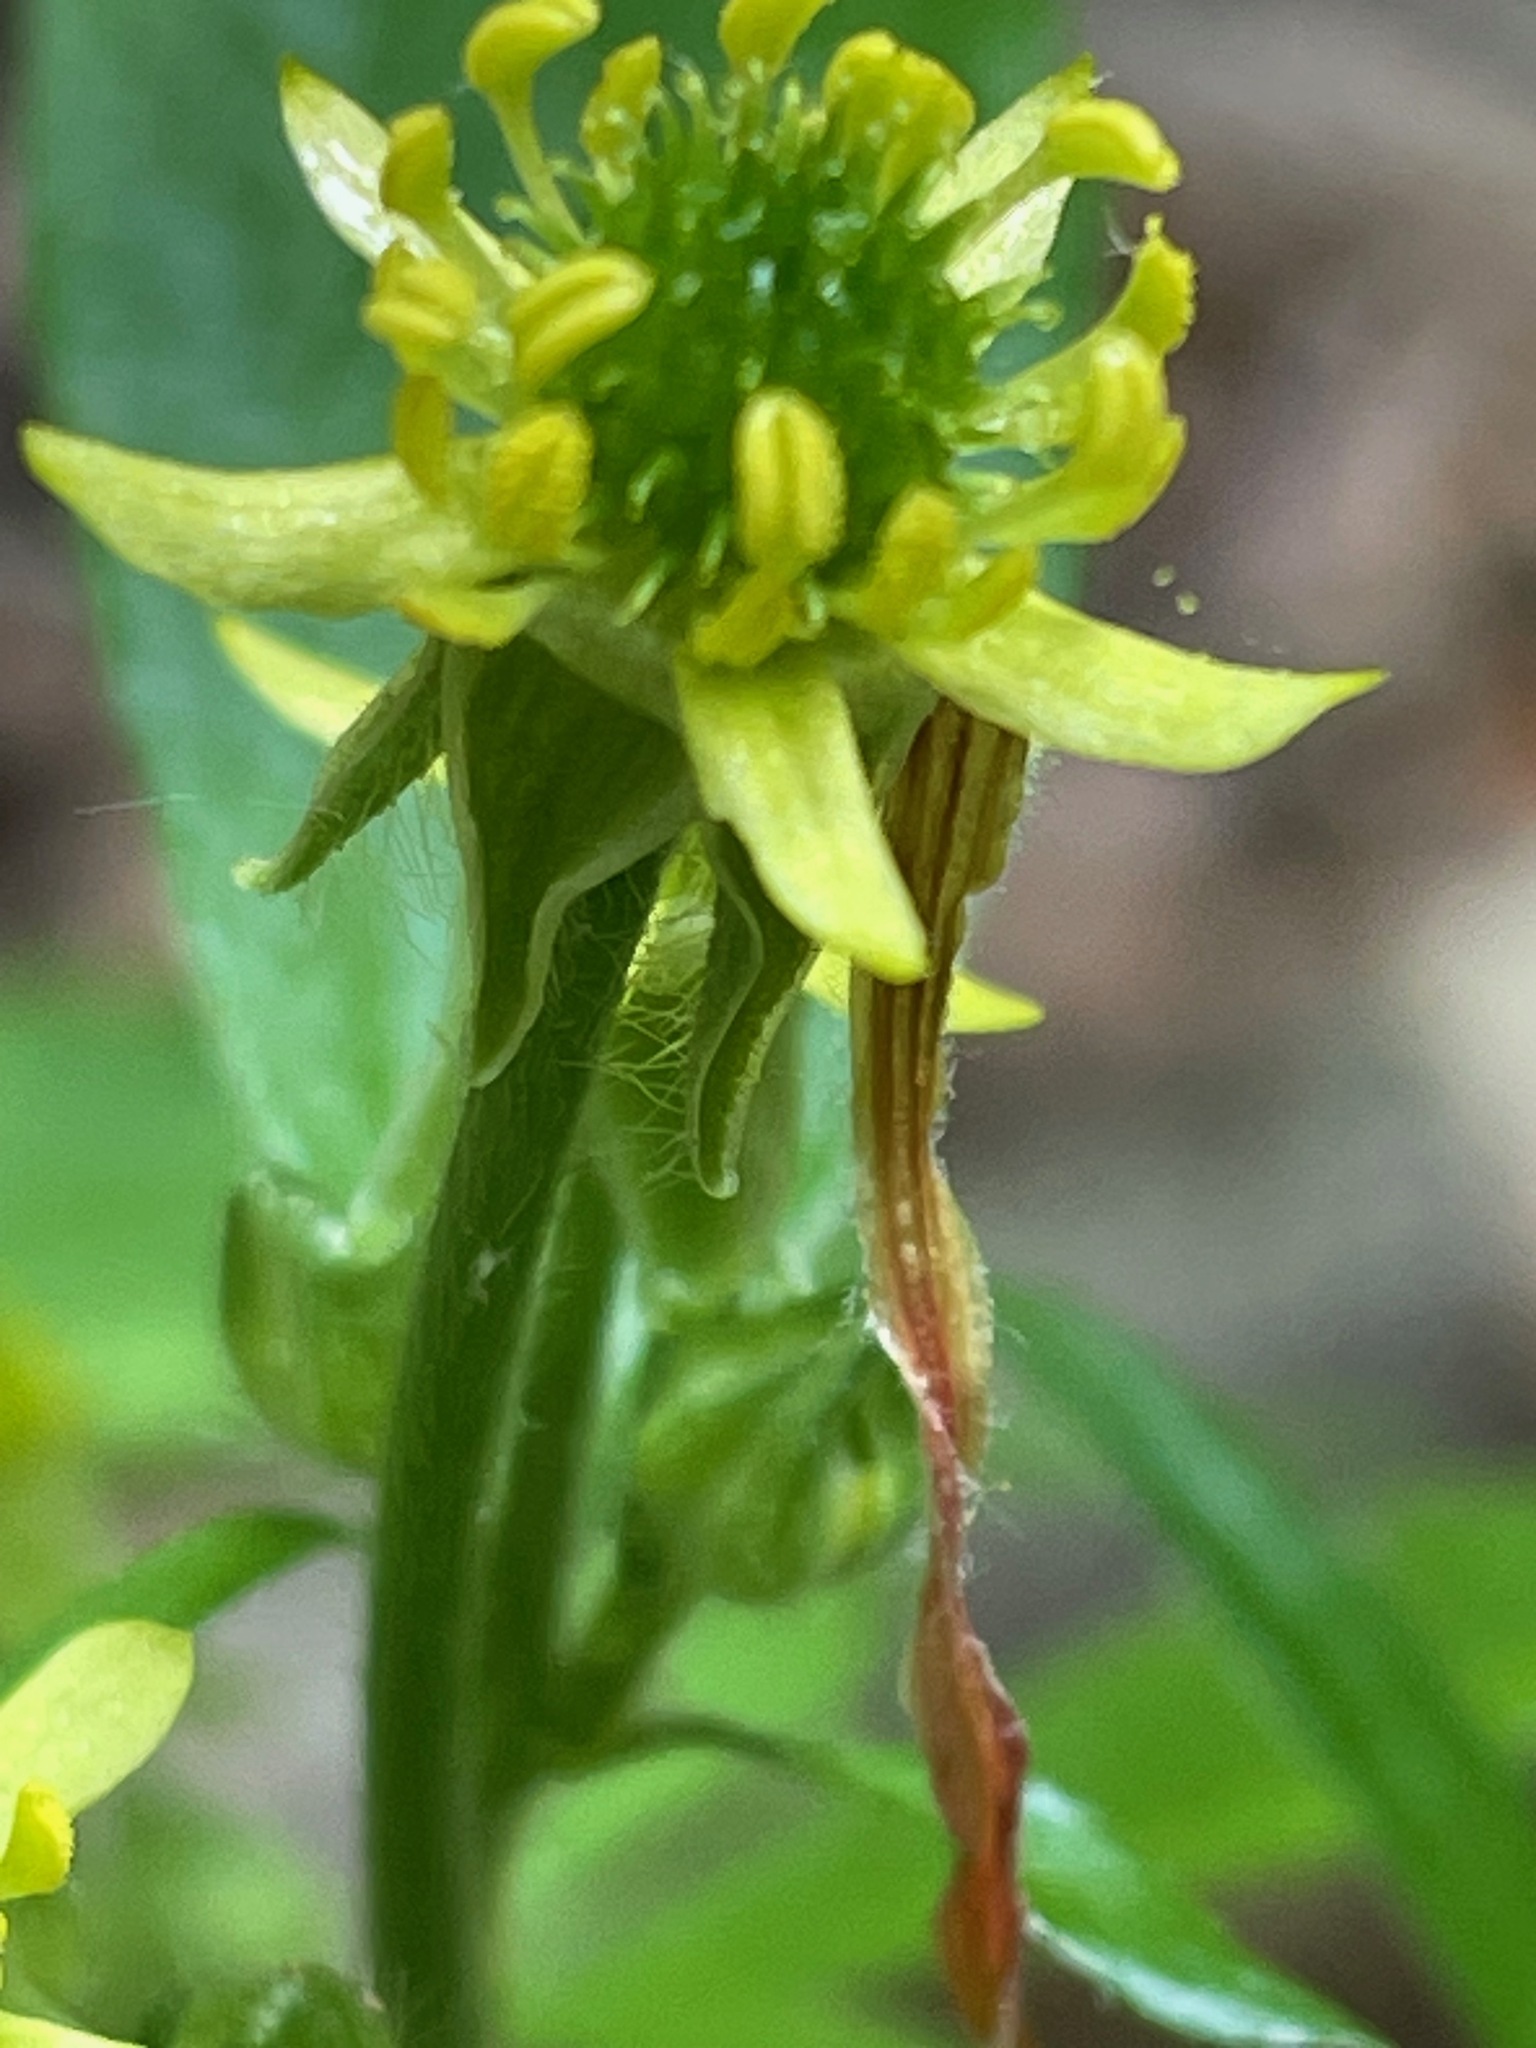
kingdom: Plantae
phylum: Tracheophyta
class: Magnoliopsida
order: Ranunculales
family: Ranunculaceae
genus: Ranunculus
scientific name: Ranunculus recurvatus
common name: Blisterwort
